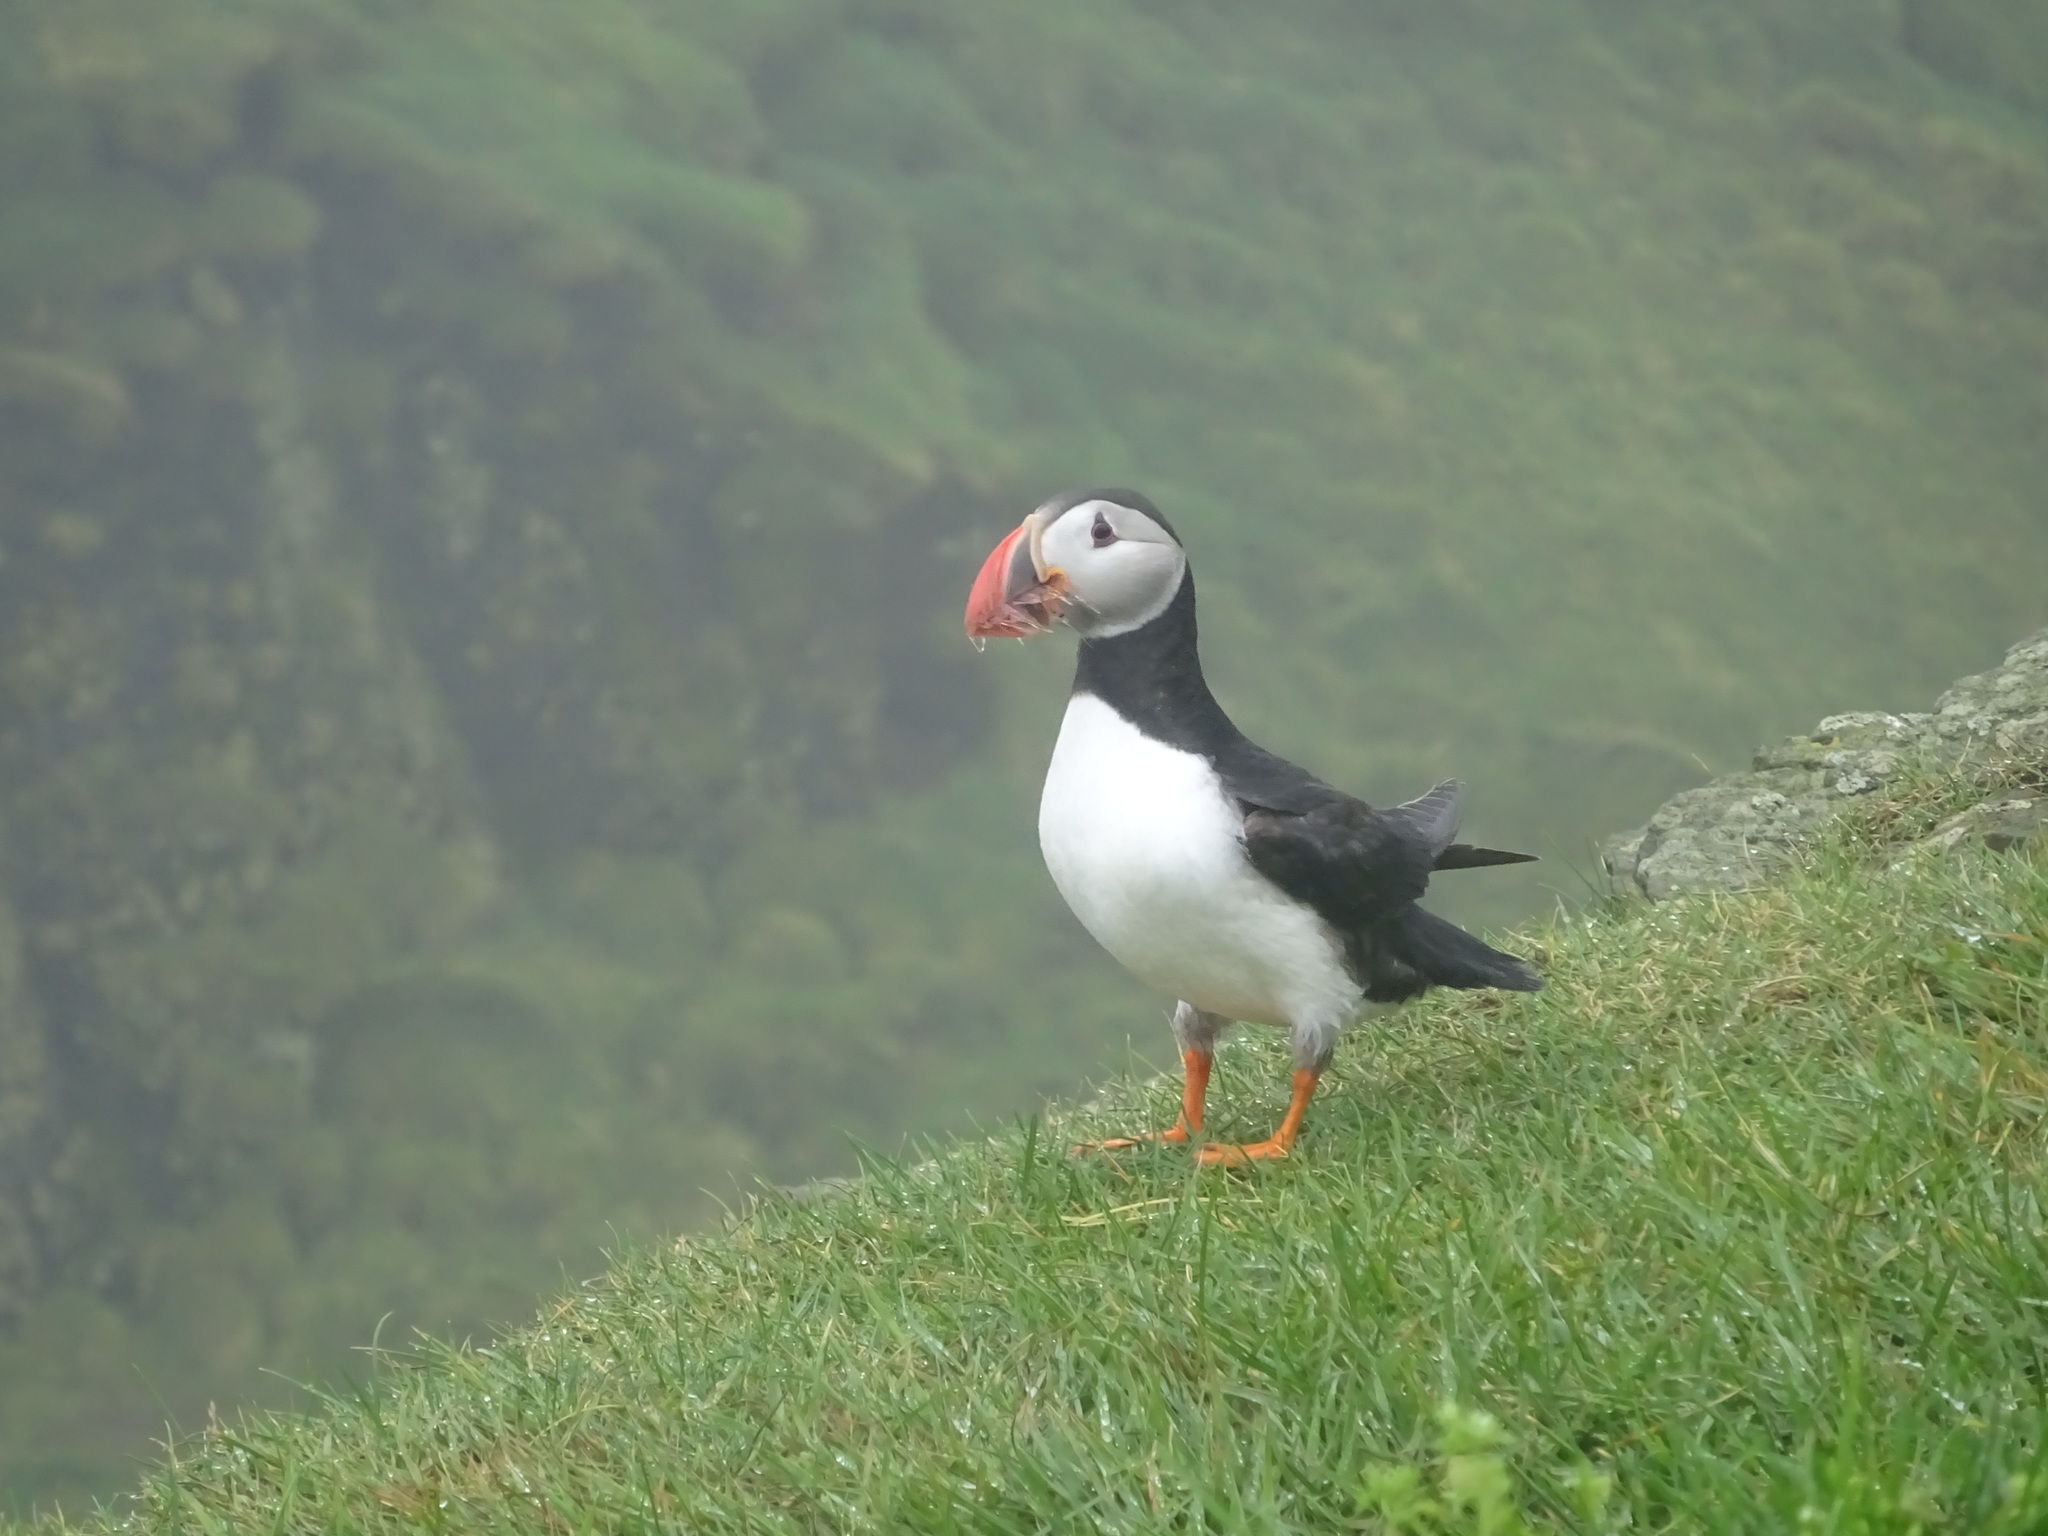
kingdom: Animalia
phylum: Chordata
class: Aves
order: Charadriiformes
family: Alcidae
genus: Fratercula
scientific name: Fratercula arctica
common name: Atlantic puffin
